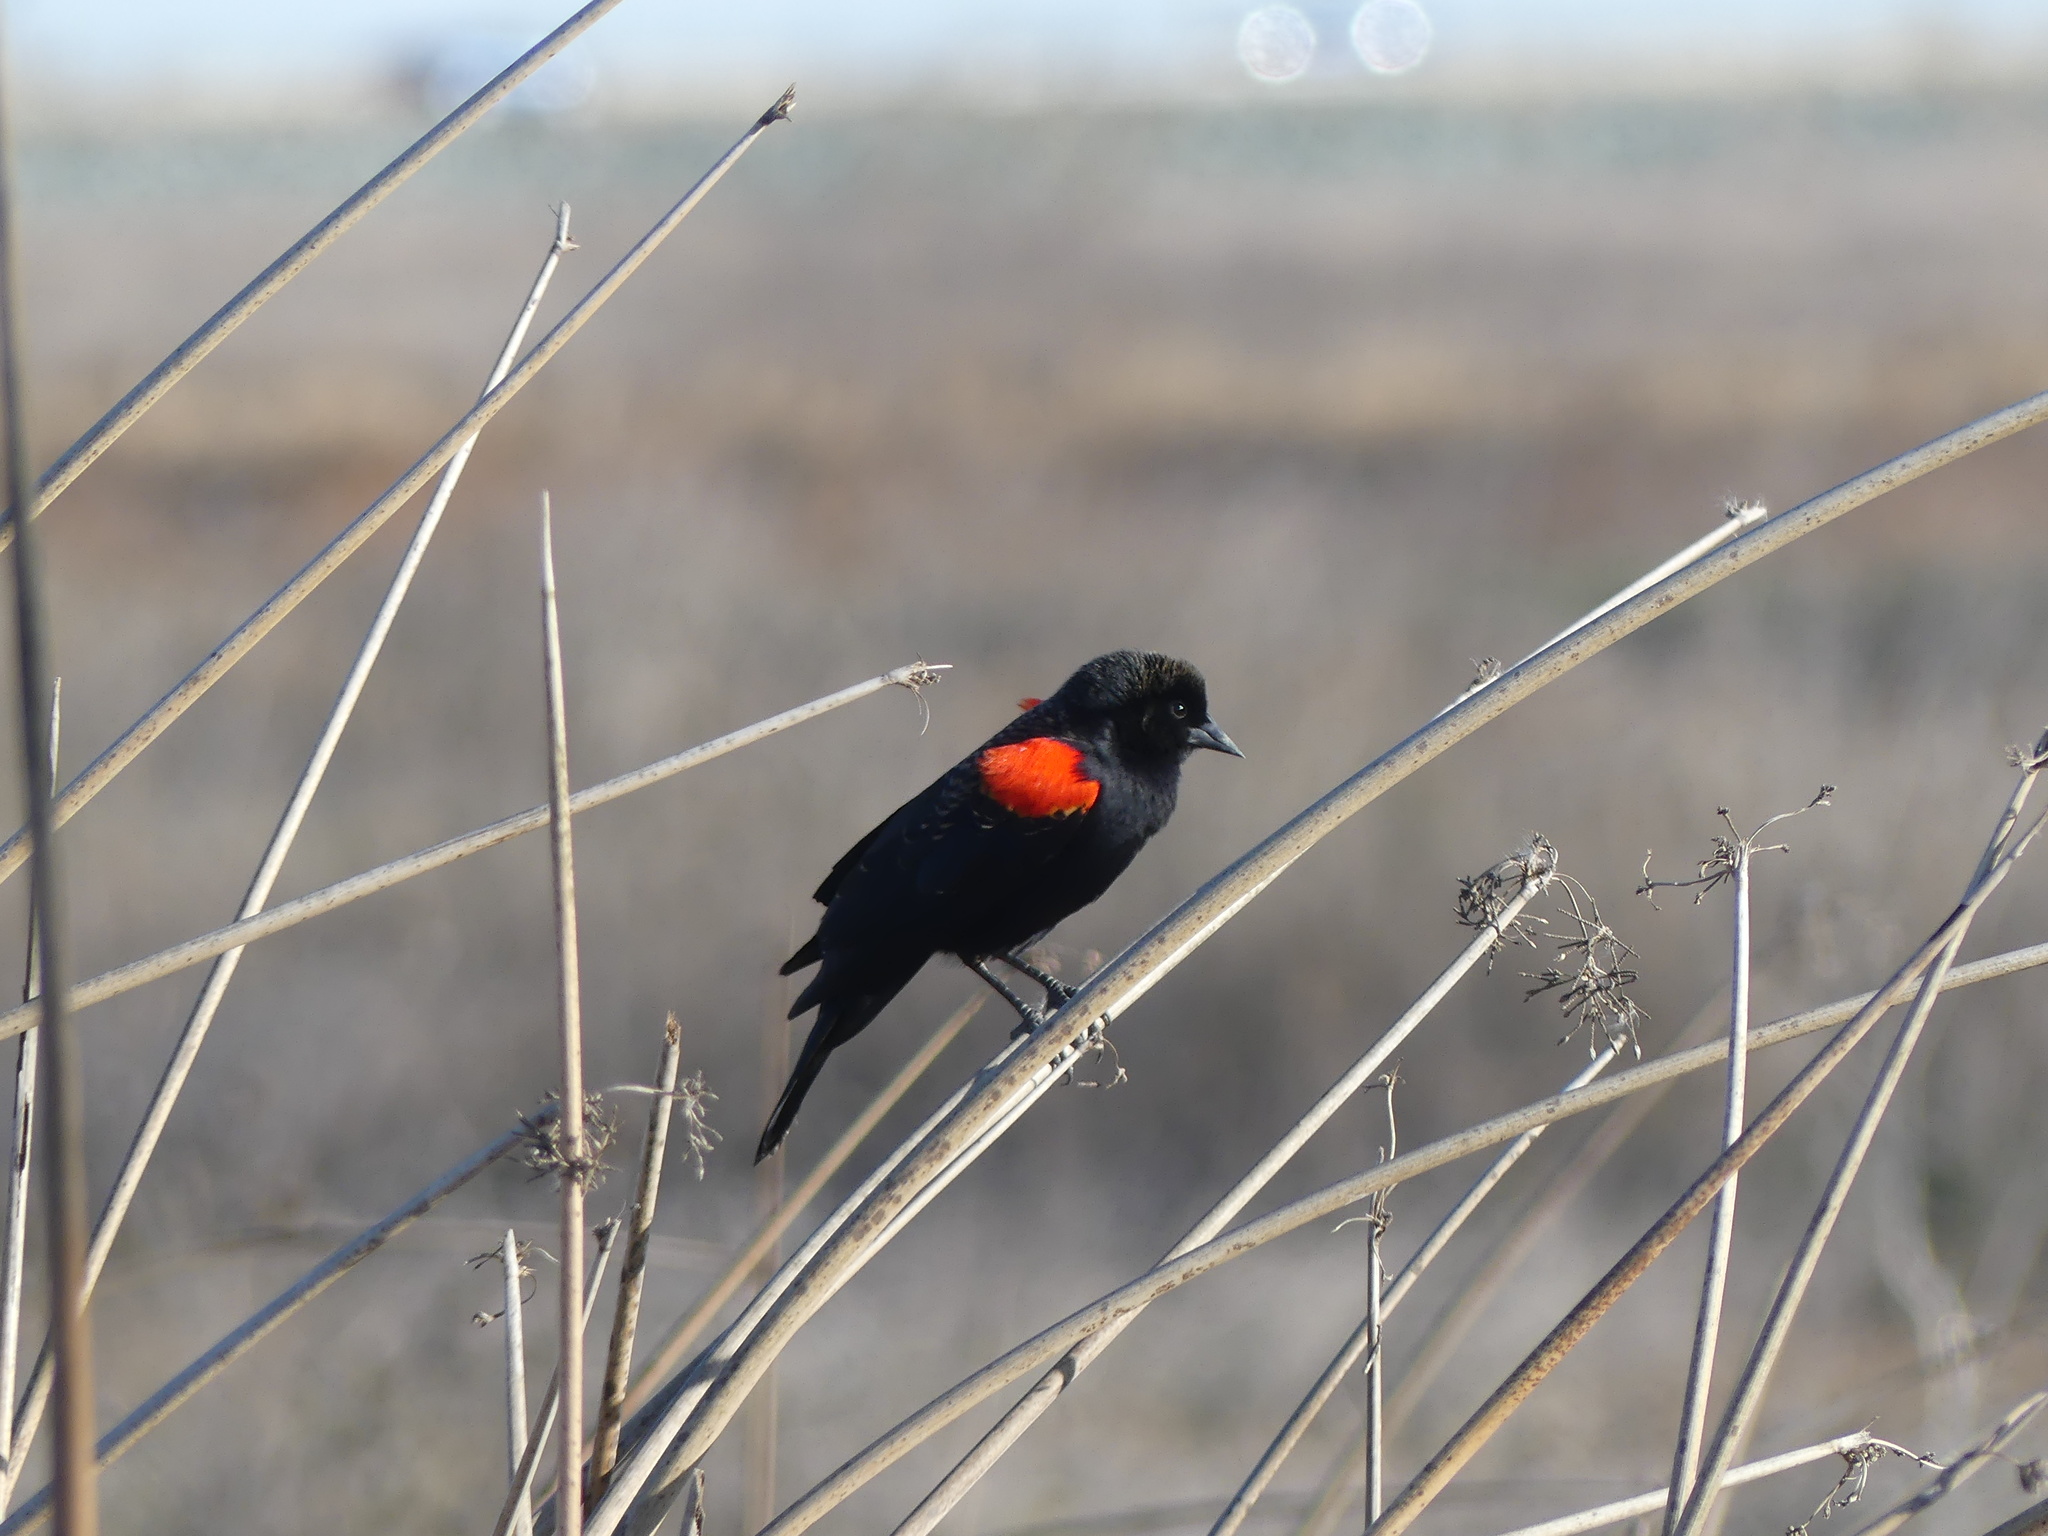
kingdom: Animalia
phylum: Chordata
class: Aves
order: Passeriformes
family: Icteridae
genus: Agelaius
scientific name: Agelaius phoeniceus
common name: Red-winged blackbird
